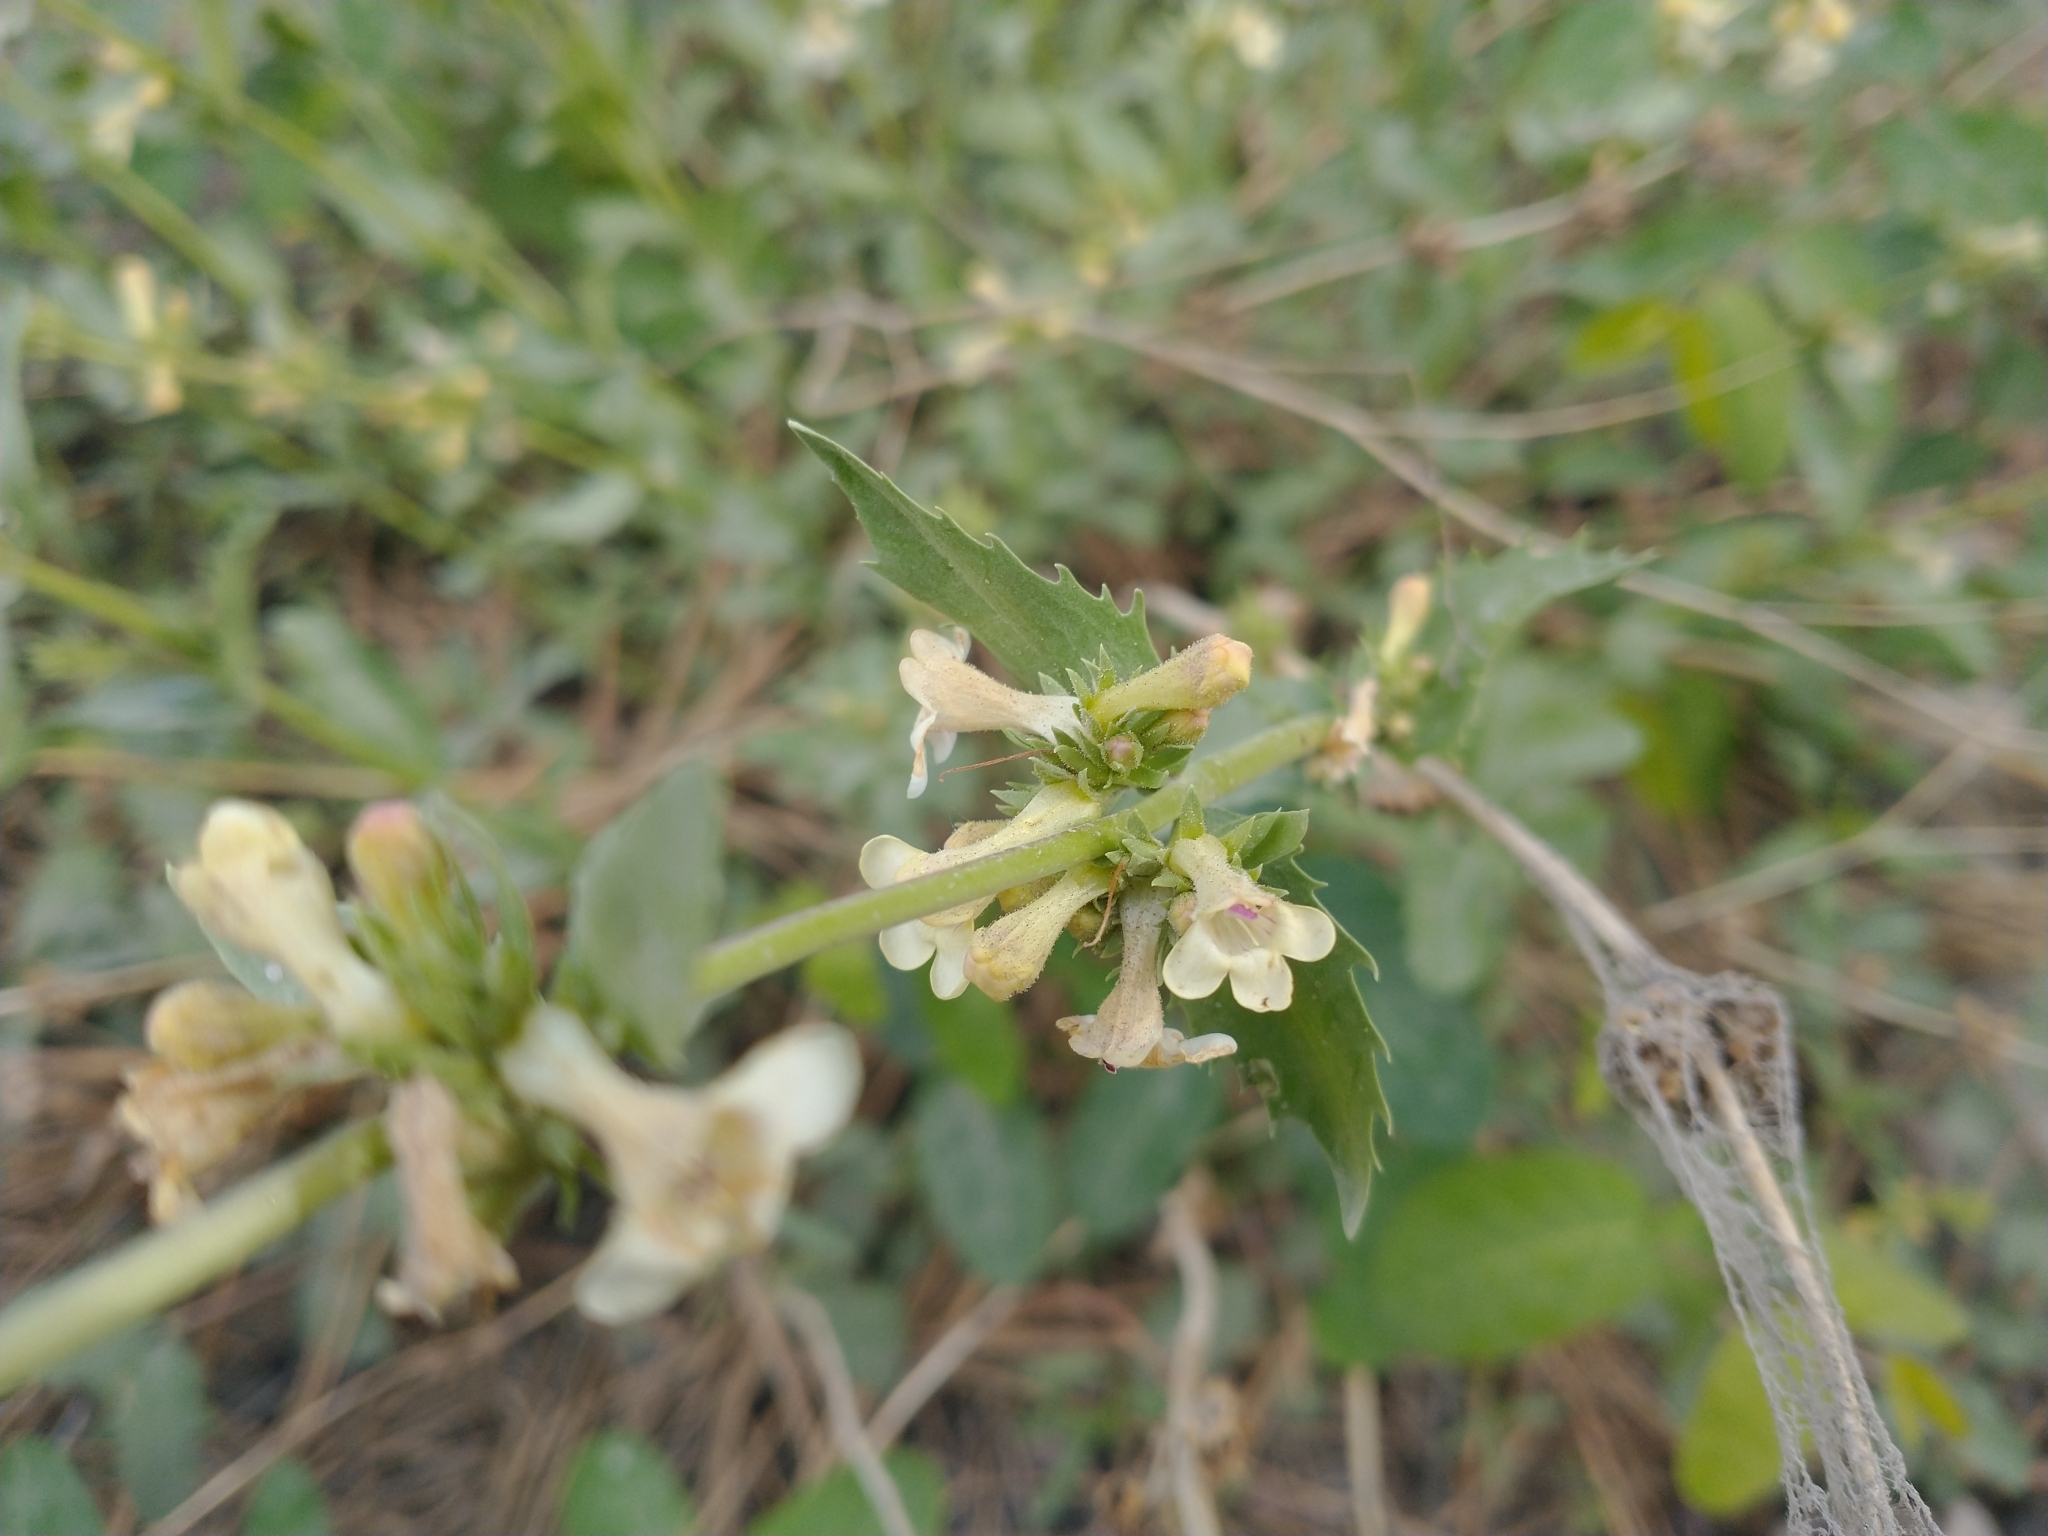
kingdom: Plantae
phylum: Tracheophyta
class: Magnoliopsida
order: Lamiales
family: Plantaginaceae
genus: Penstemon
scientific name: Penstemon deustus
